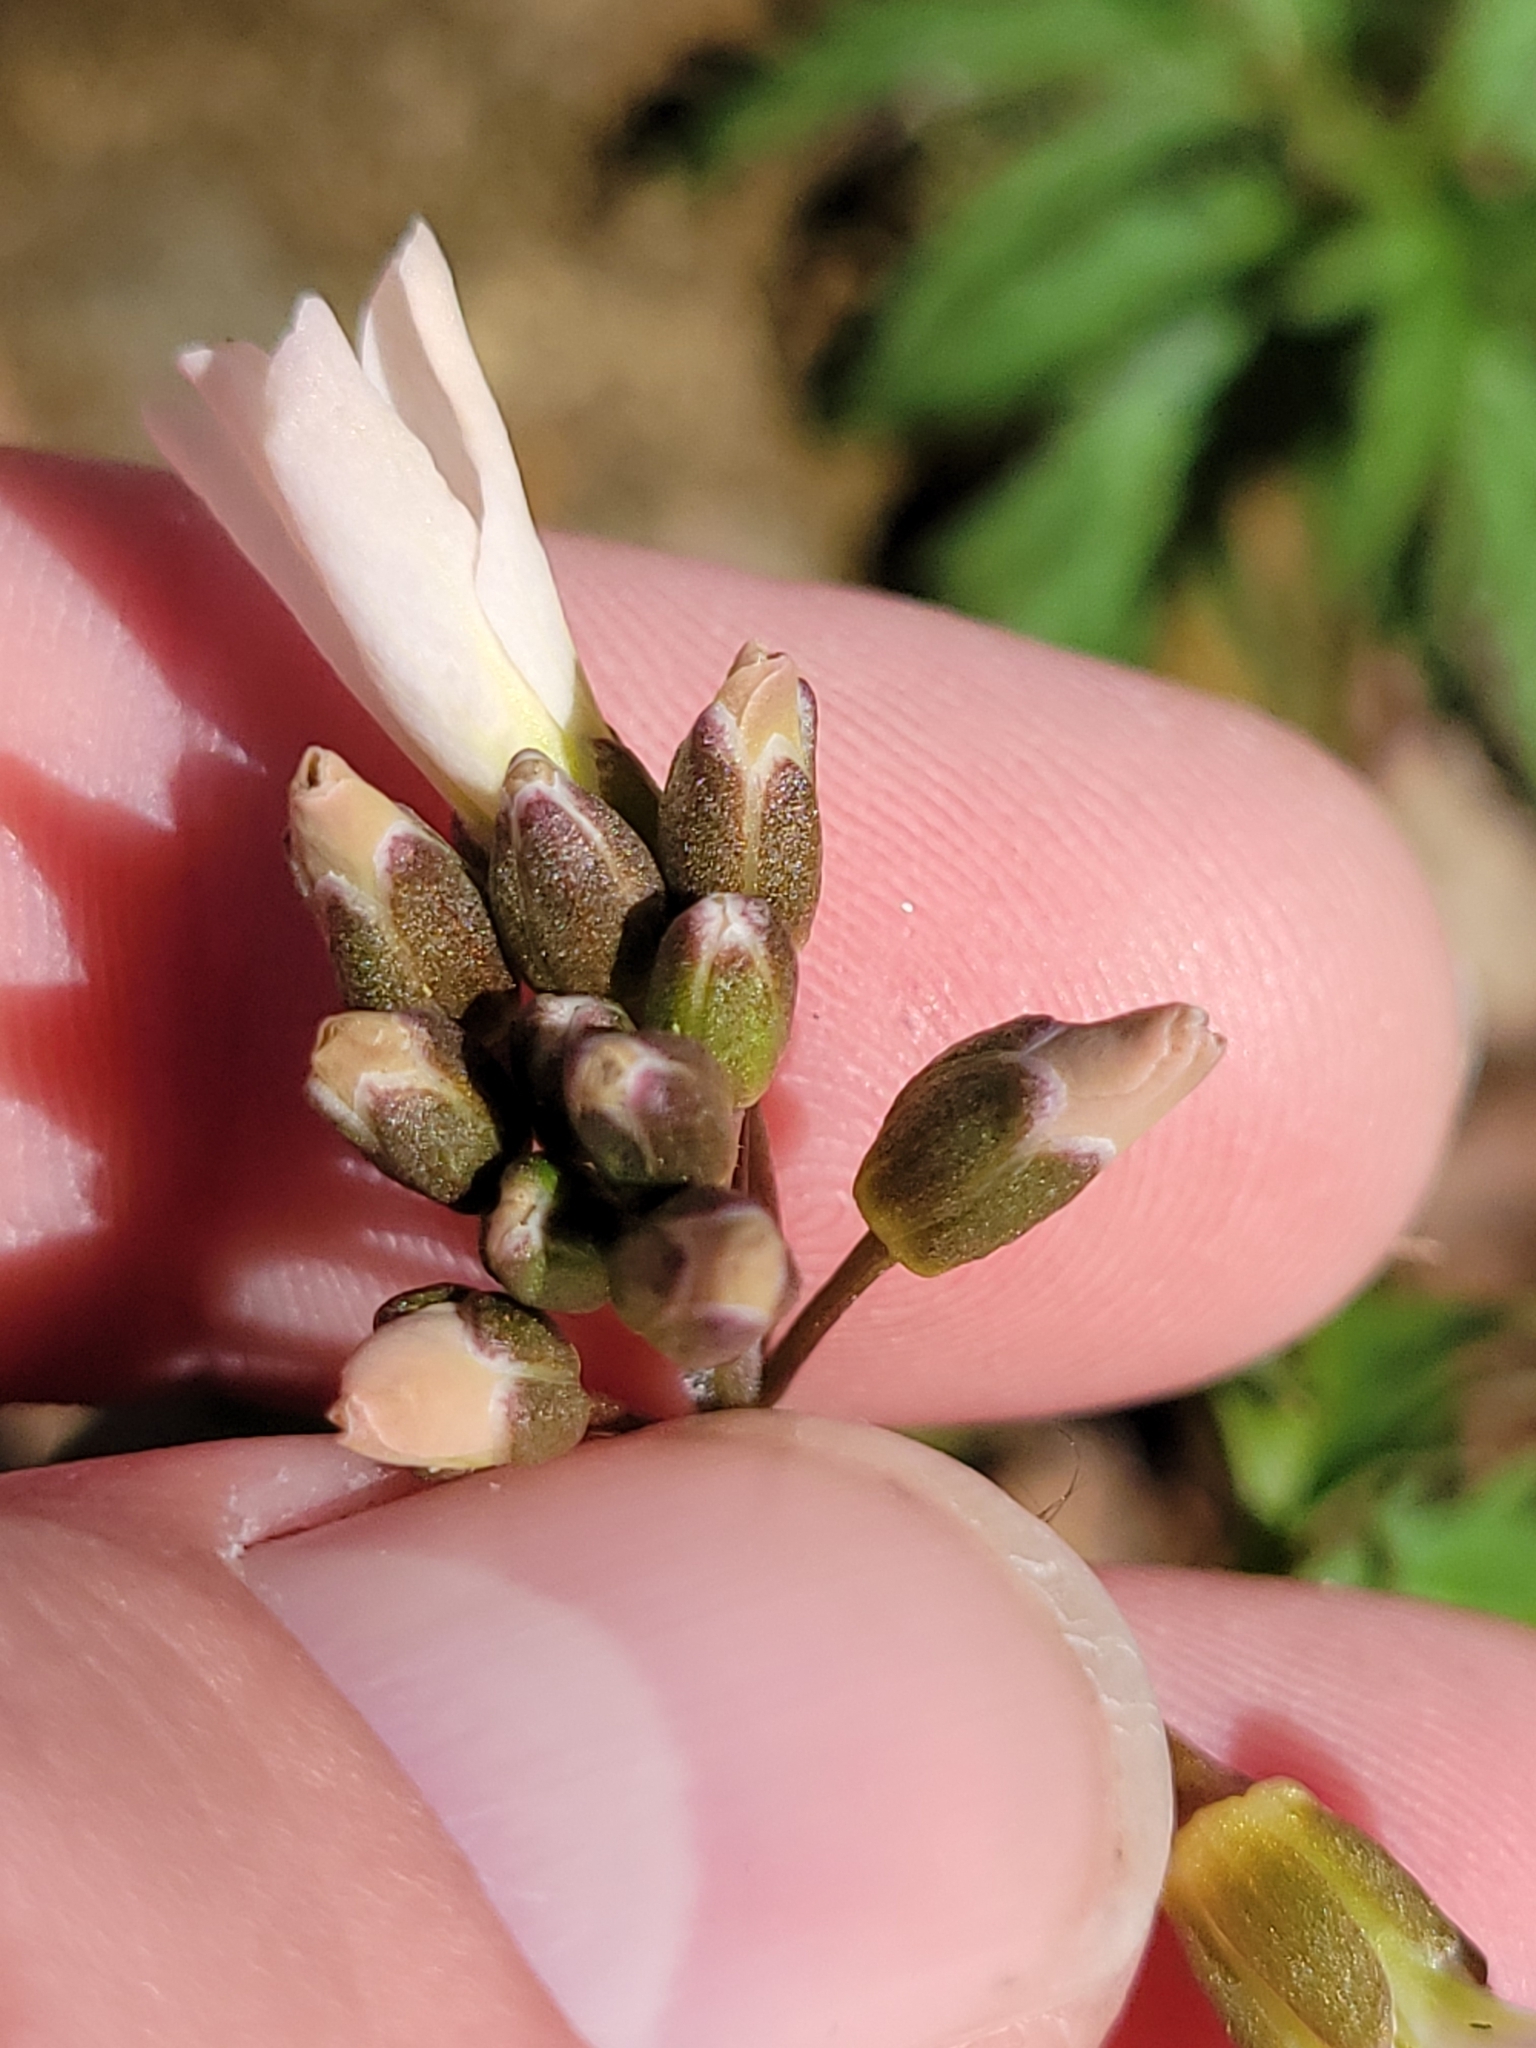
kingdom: Plantae
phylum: Tracheophyta
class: Magnoliopsida
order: Brassicales
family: Brassicaceae
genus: Cardamine
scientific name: Cardamine concatenata
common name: Cut-leaf toothcup
